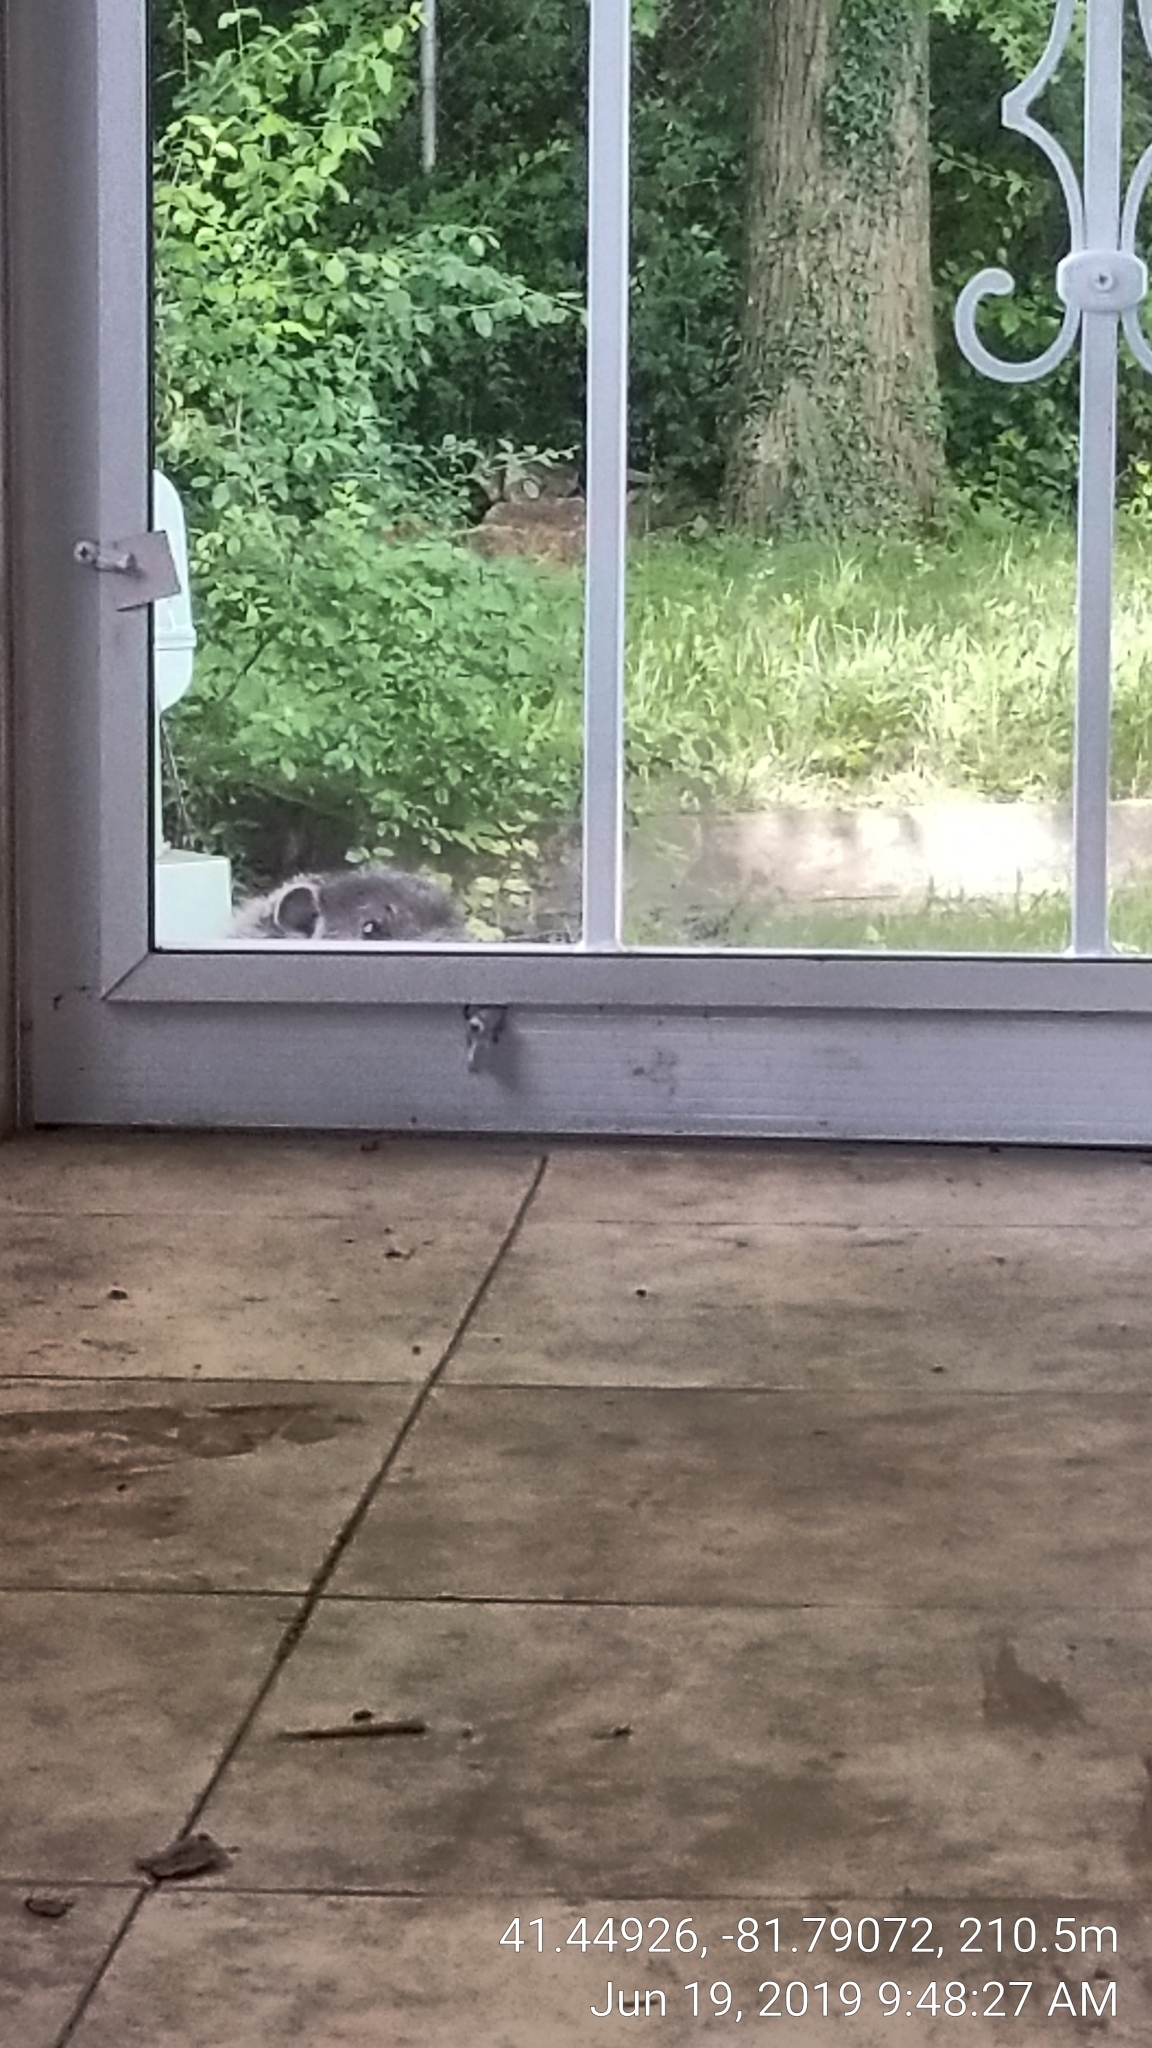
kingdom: Animalia
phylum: Chordata
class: Mammalia
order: Rodentia
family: Sciuridae
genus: Marmota
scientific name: Marmota monax
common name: Groundhog
